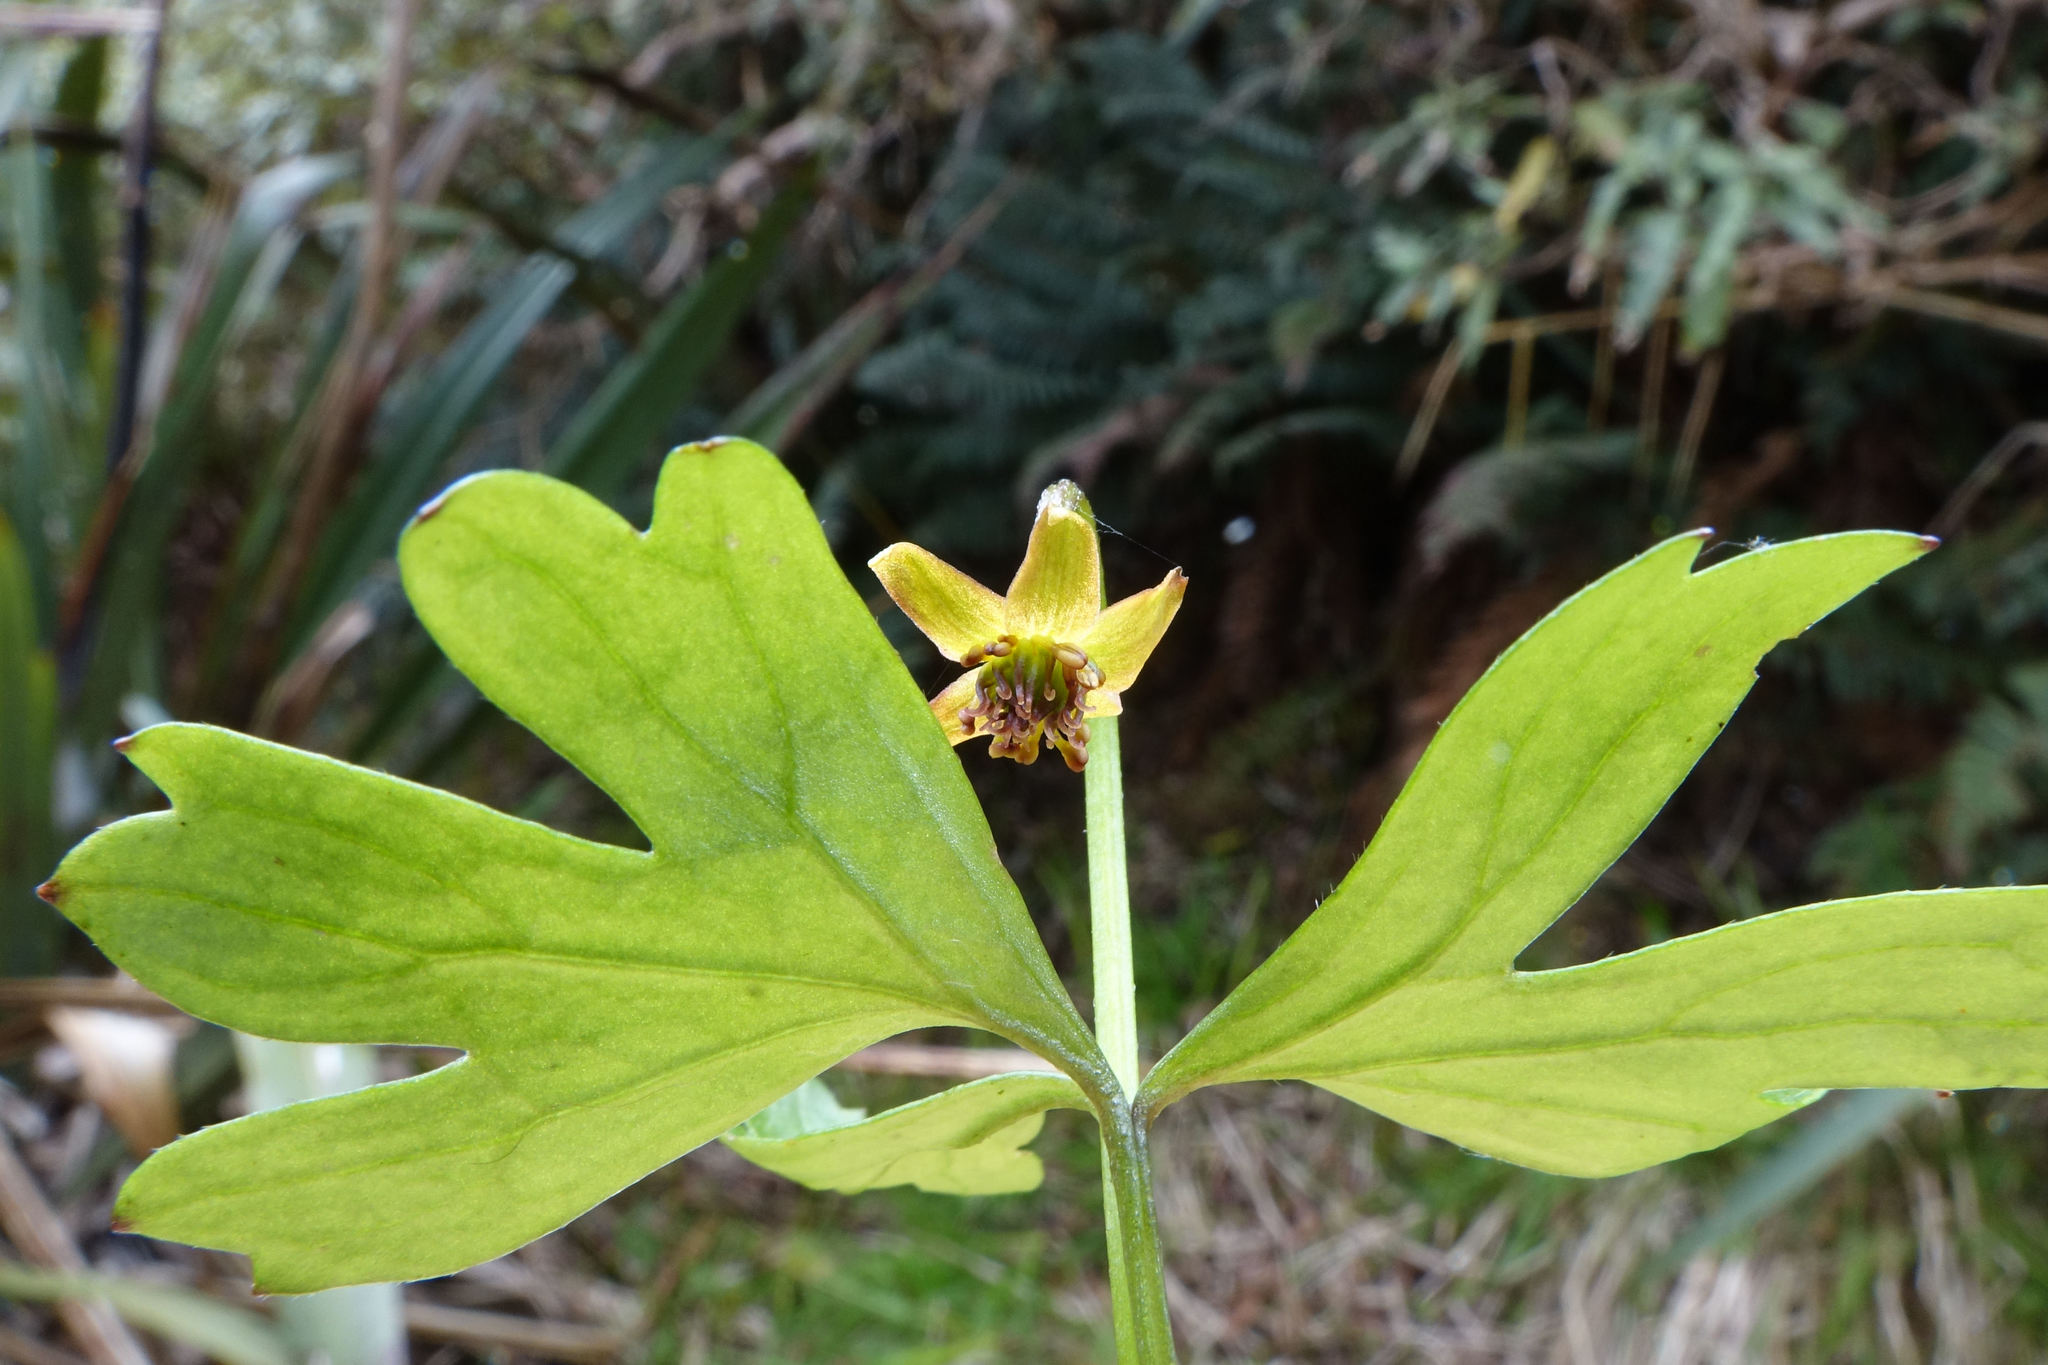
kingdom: Plantae
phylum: Tracheophyta
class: Magnoliopsida
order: Ranunculales
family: Ranunculaceae
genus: Anemonastrum
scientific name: Anemonastrum tenuicaule
